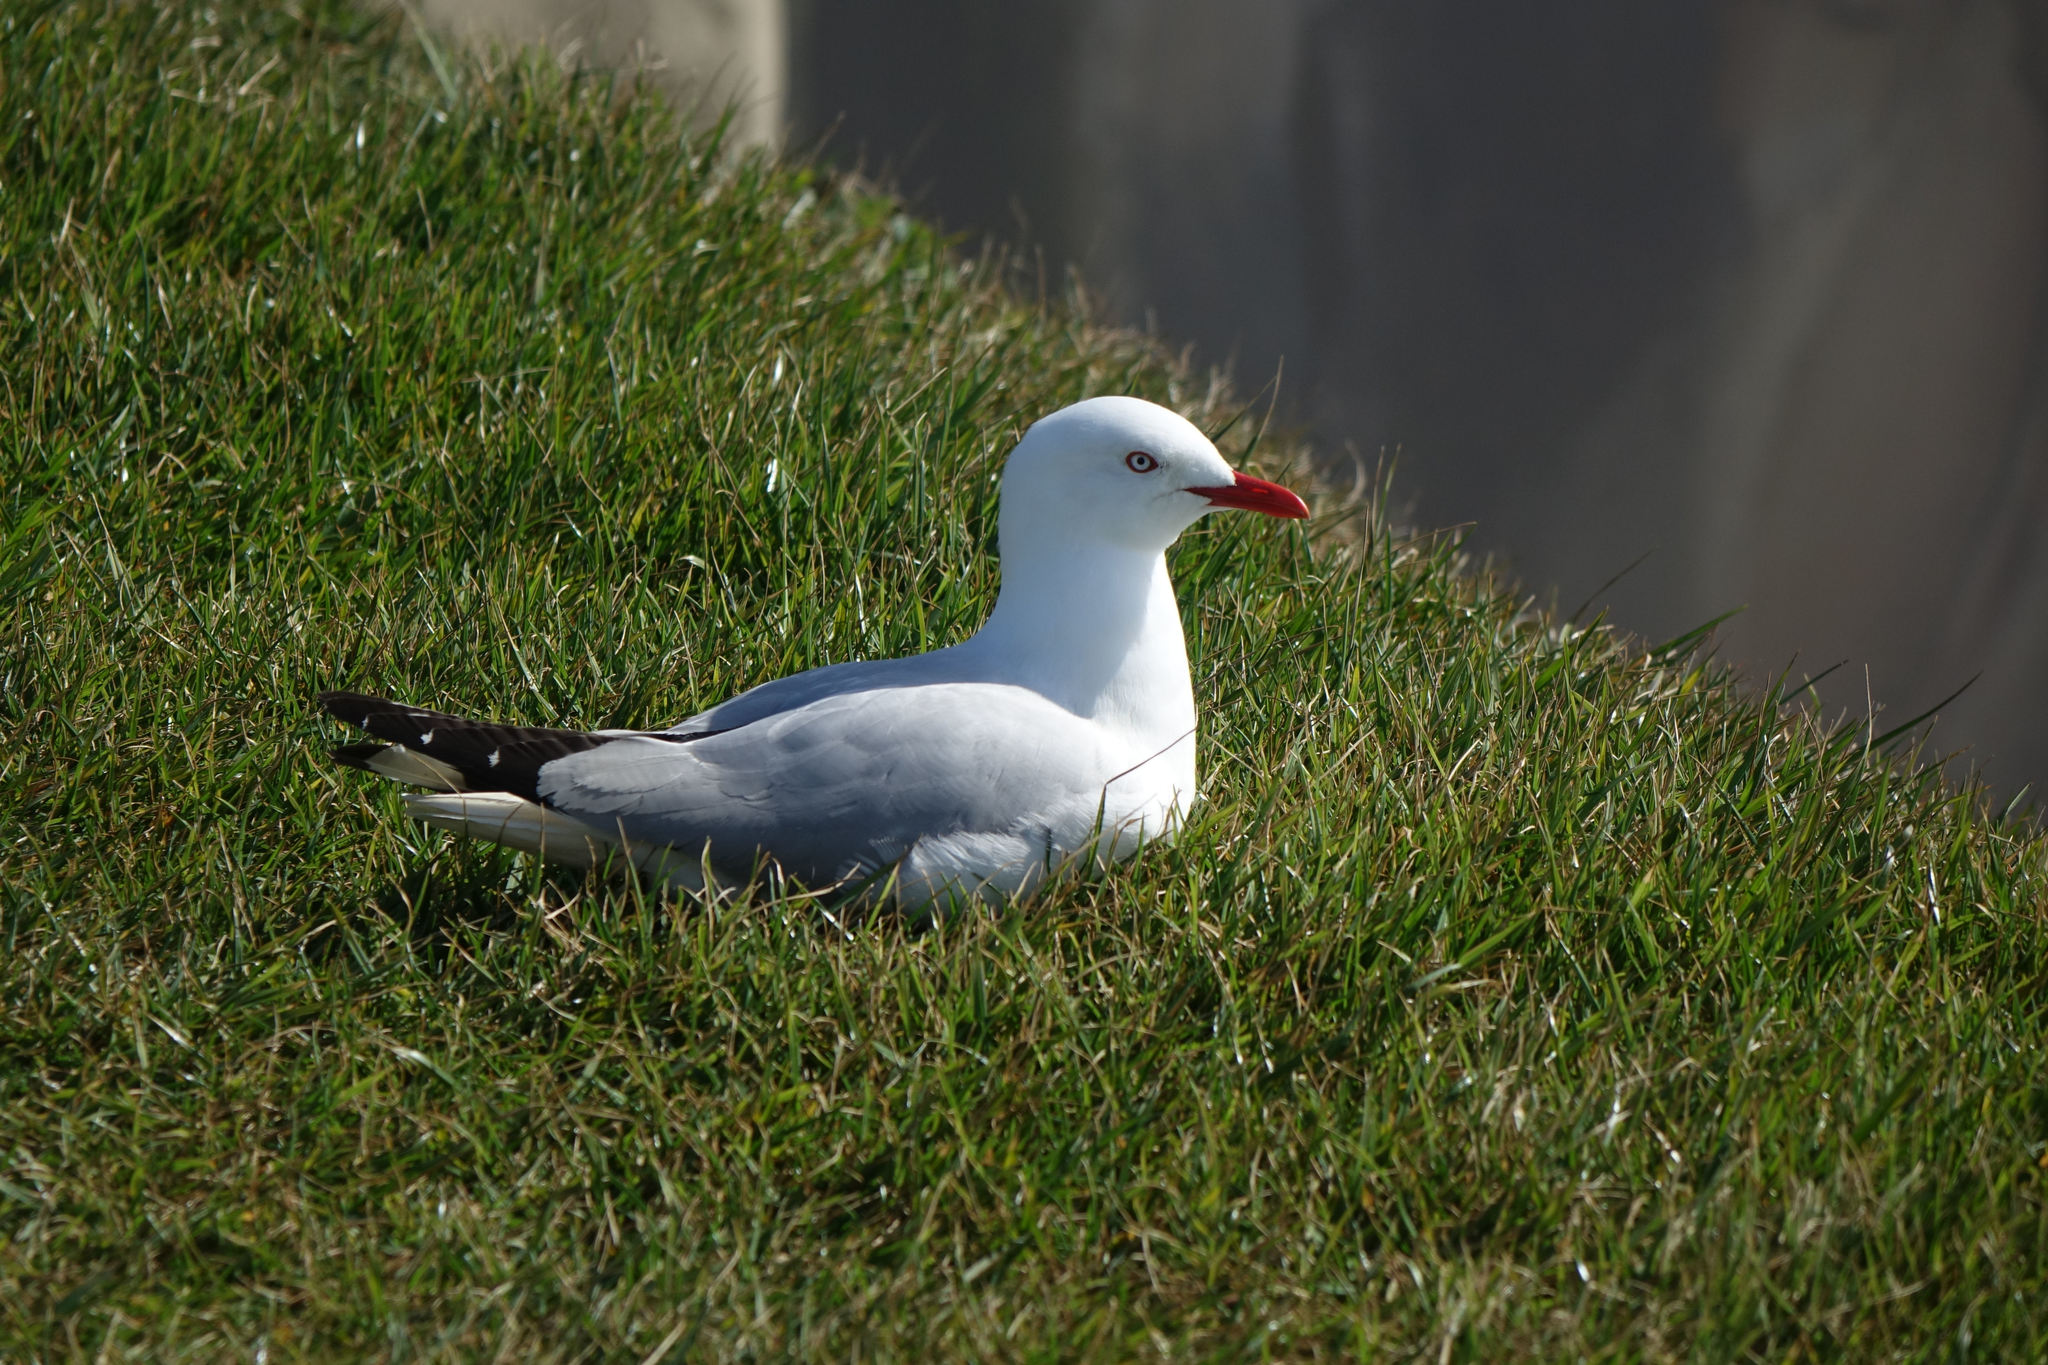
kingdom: Animalia
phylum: Chordata
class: Aves
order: Charadriiformes
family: Laridae
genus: Chroicocephalus
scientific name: Chroicocephalus novaehollandiae
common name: Silver gull
